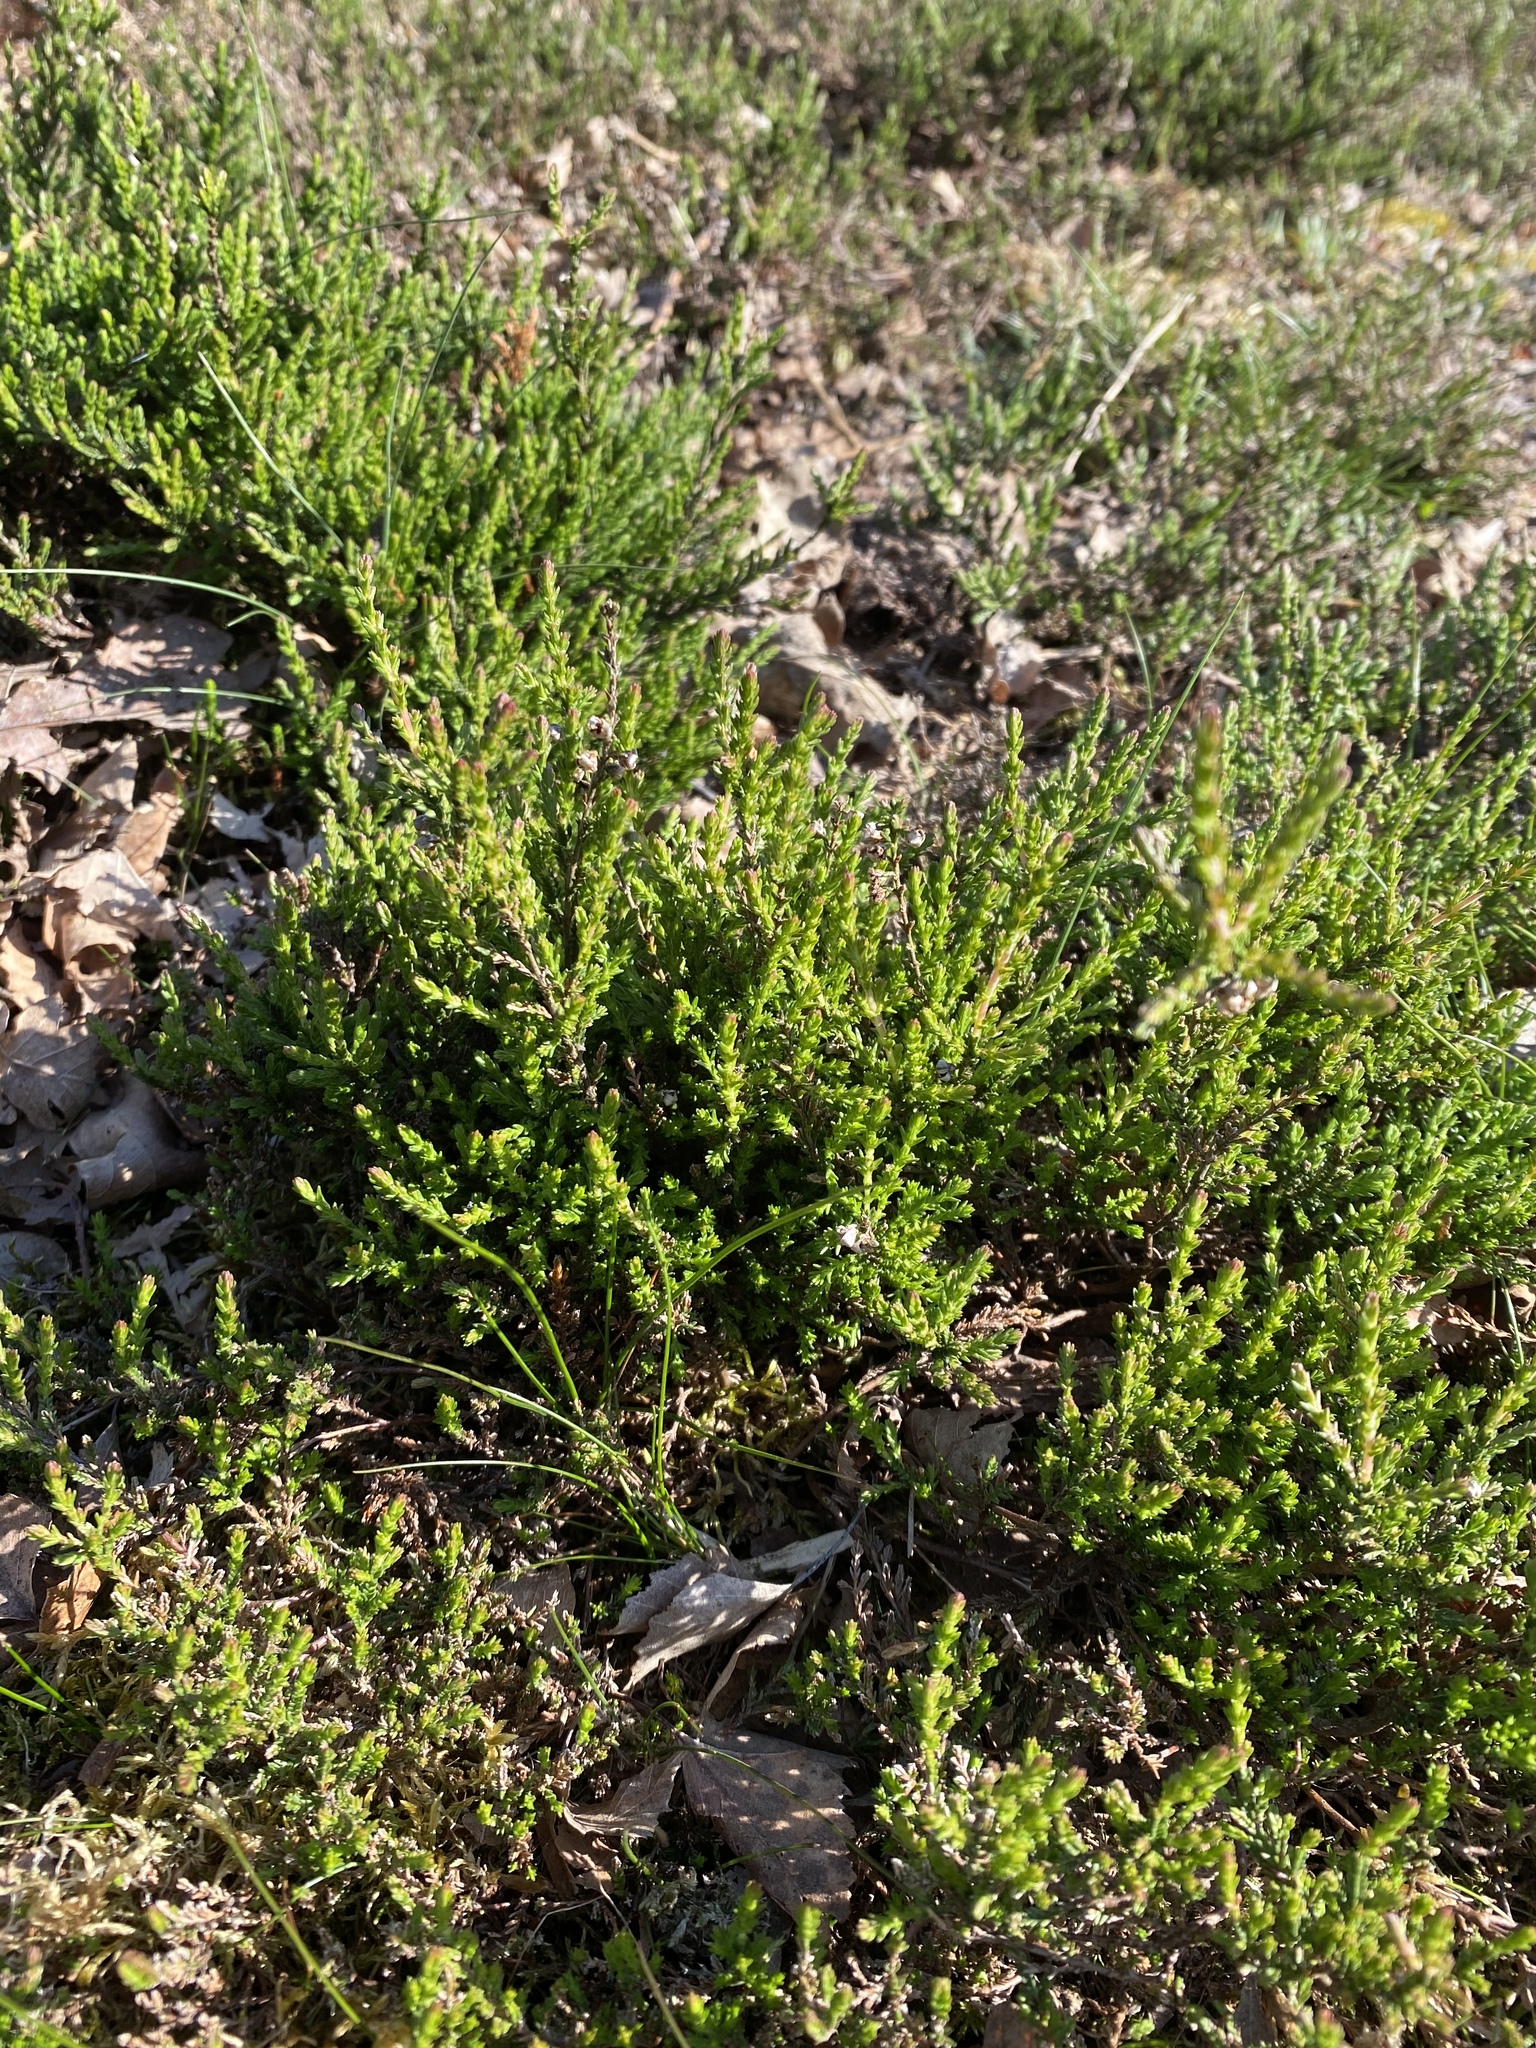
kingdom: Plantae
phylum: Tracheophyta
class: Magnoliopsida
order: Ericales
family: Ericaceae
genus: Calluna
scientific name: Calluna vulgaris
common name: Heather
